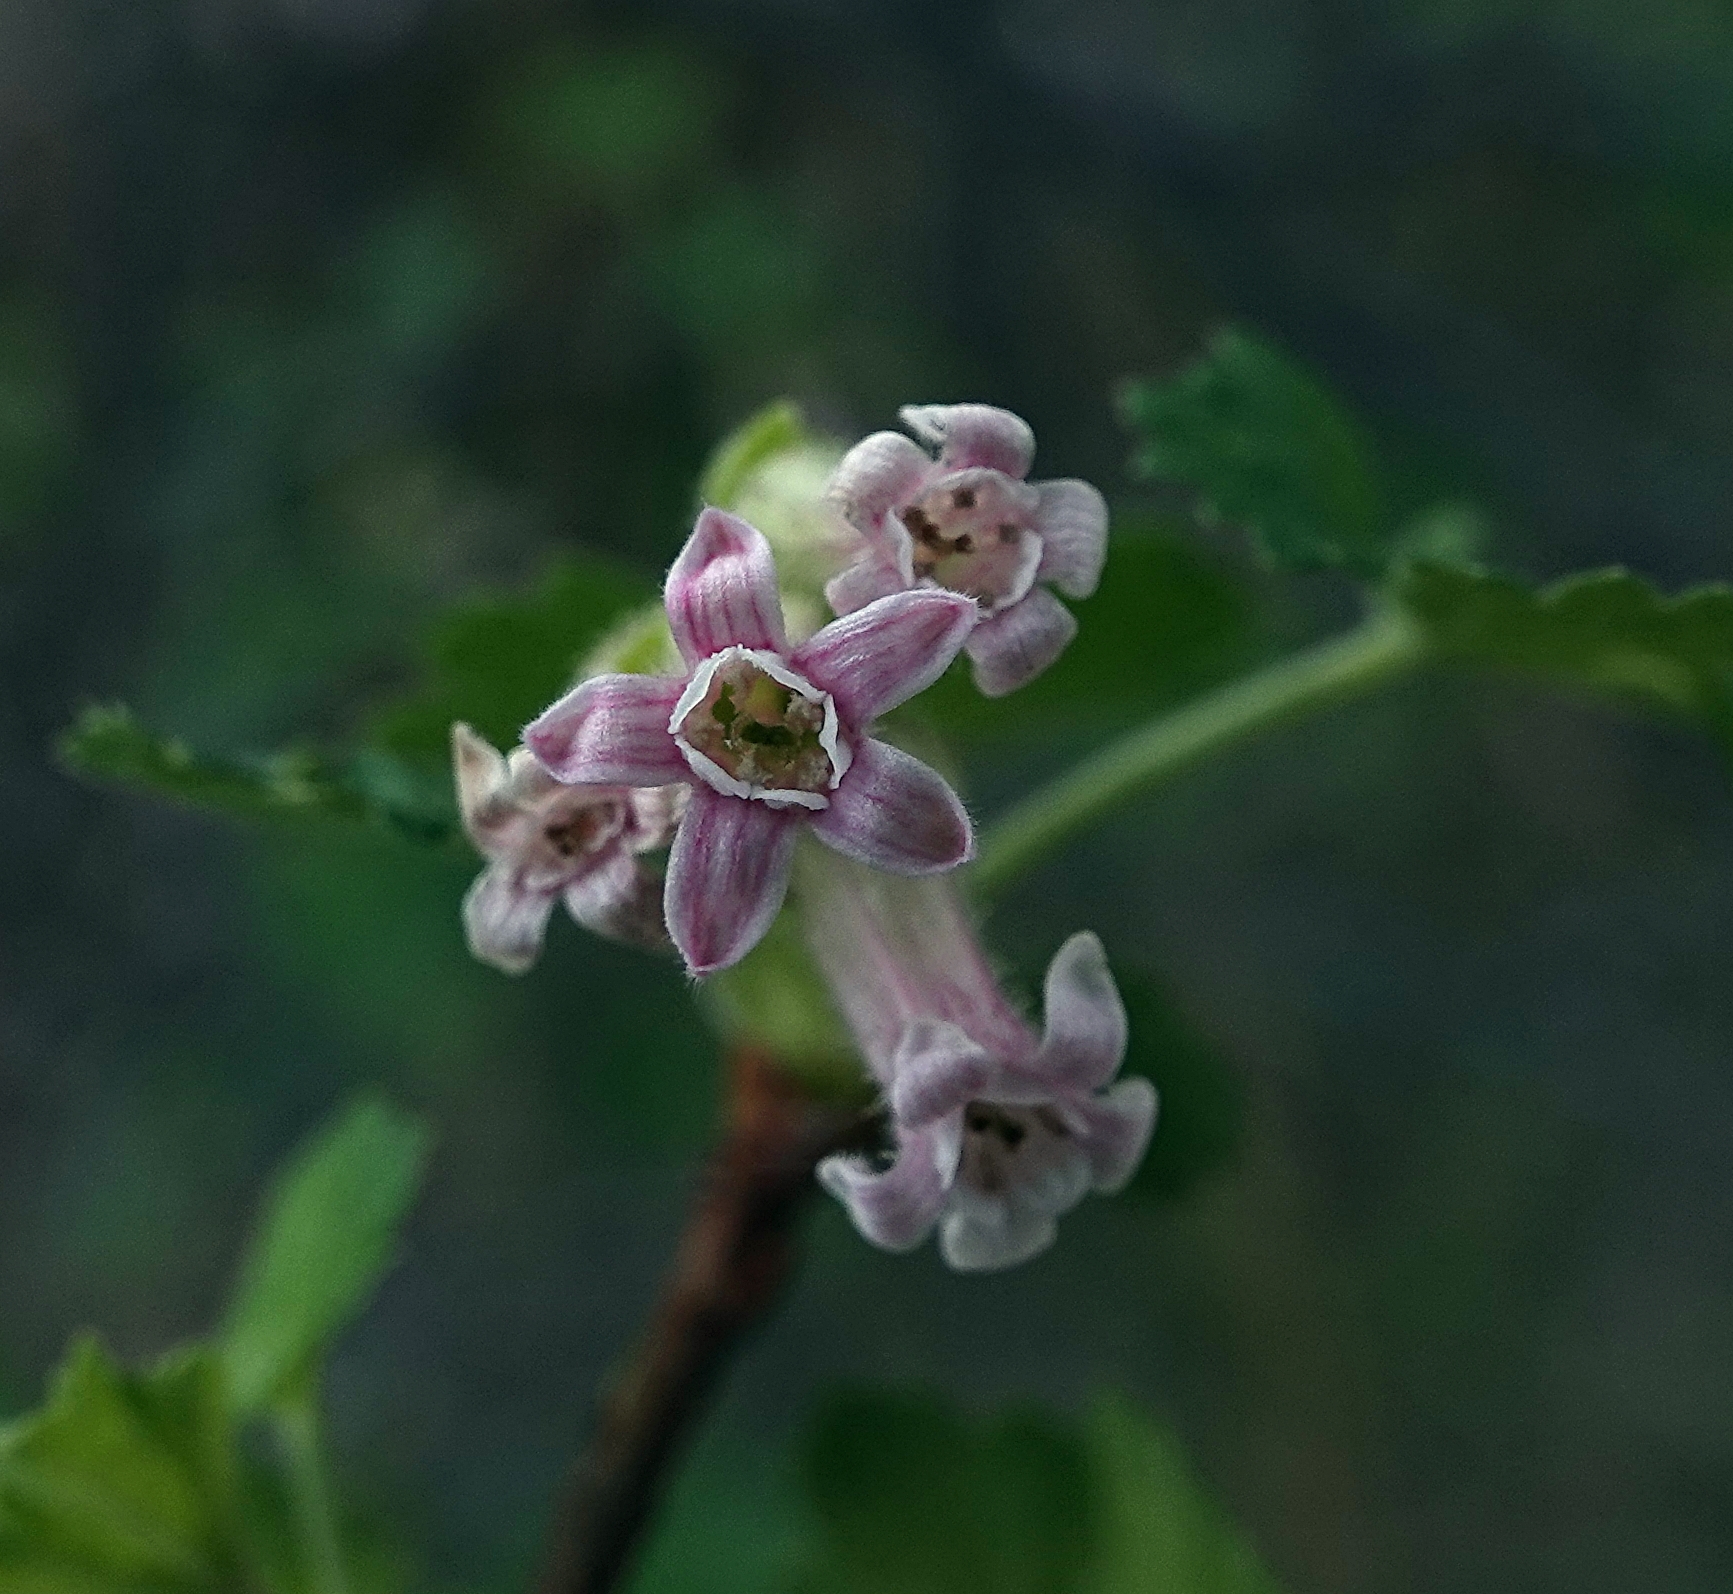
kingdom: Plantae
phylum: Tracheophyta
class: Magnoliopsida
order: Saxifragales
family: Grossulariaceae
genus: Ribes
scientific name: Ribes cereum
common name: Wax currant
